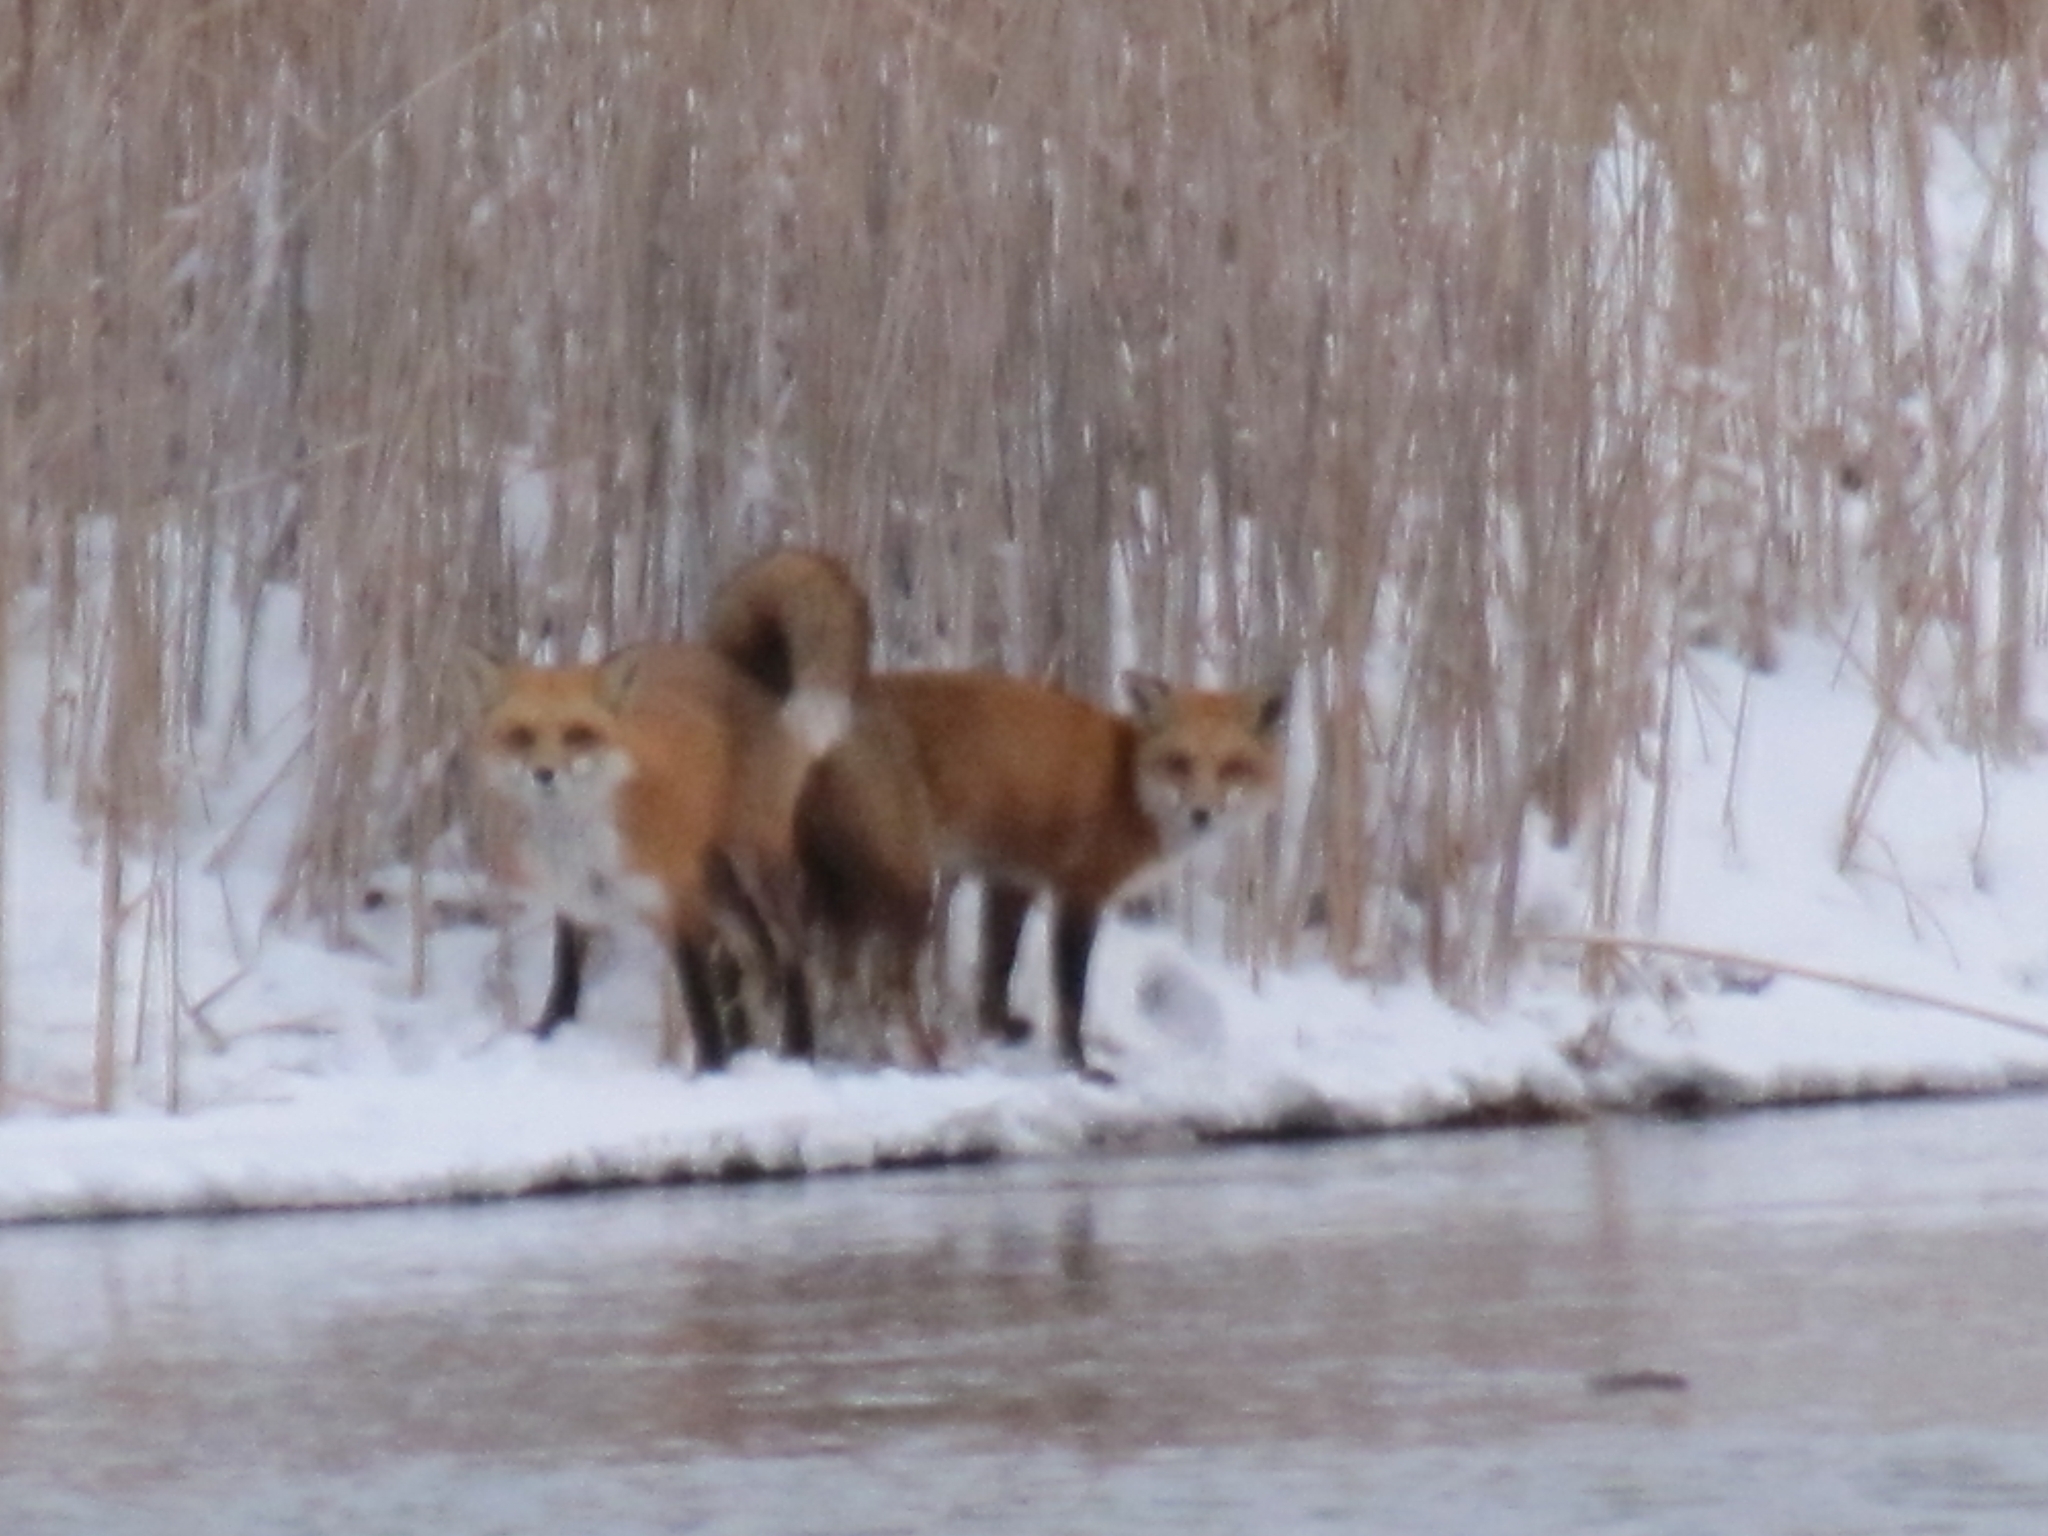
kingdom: Animalia
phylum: Chordata
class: Mammalia
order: Carnivora
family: Canidae
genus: Vulpes
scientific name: Vulpes vulpes
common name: Red fox
